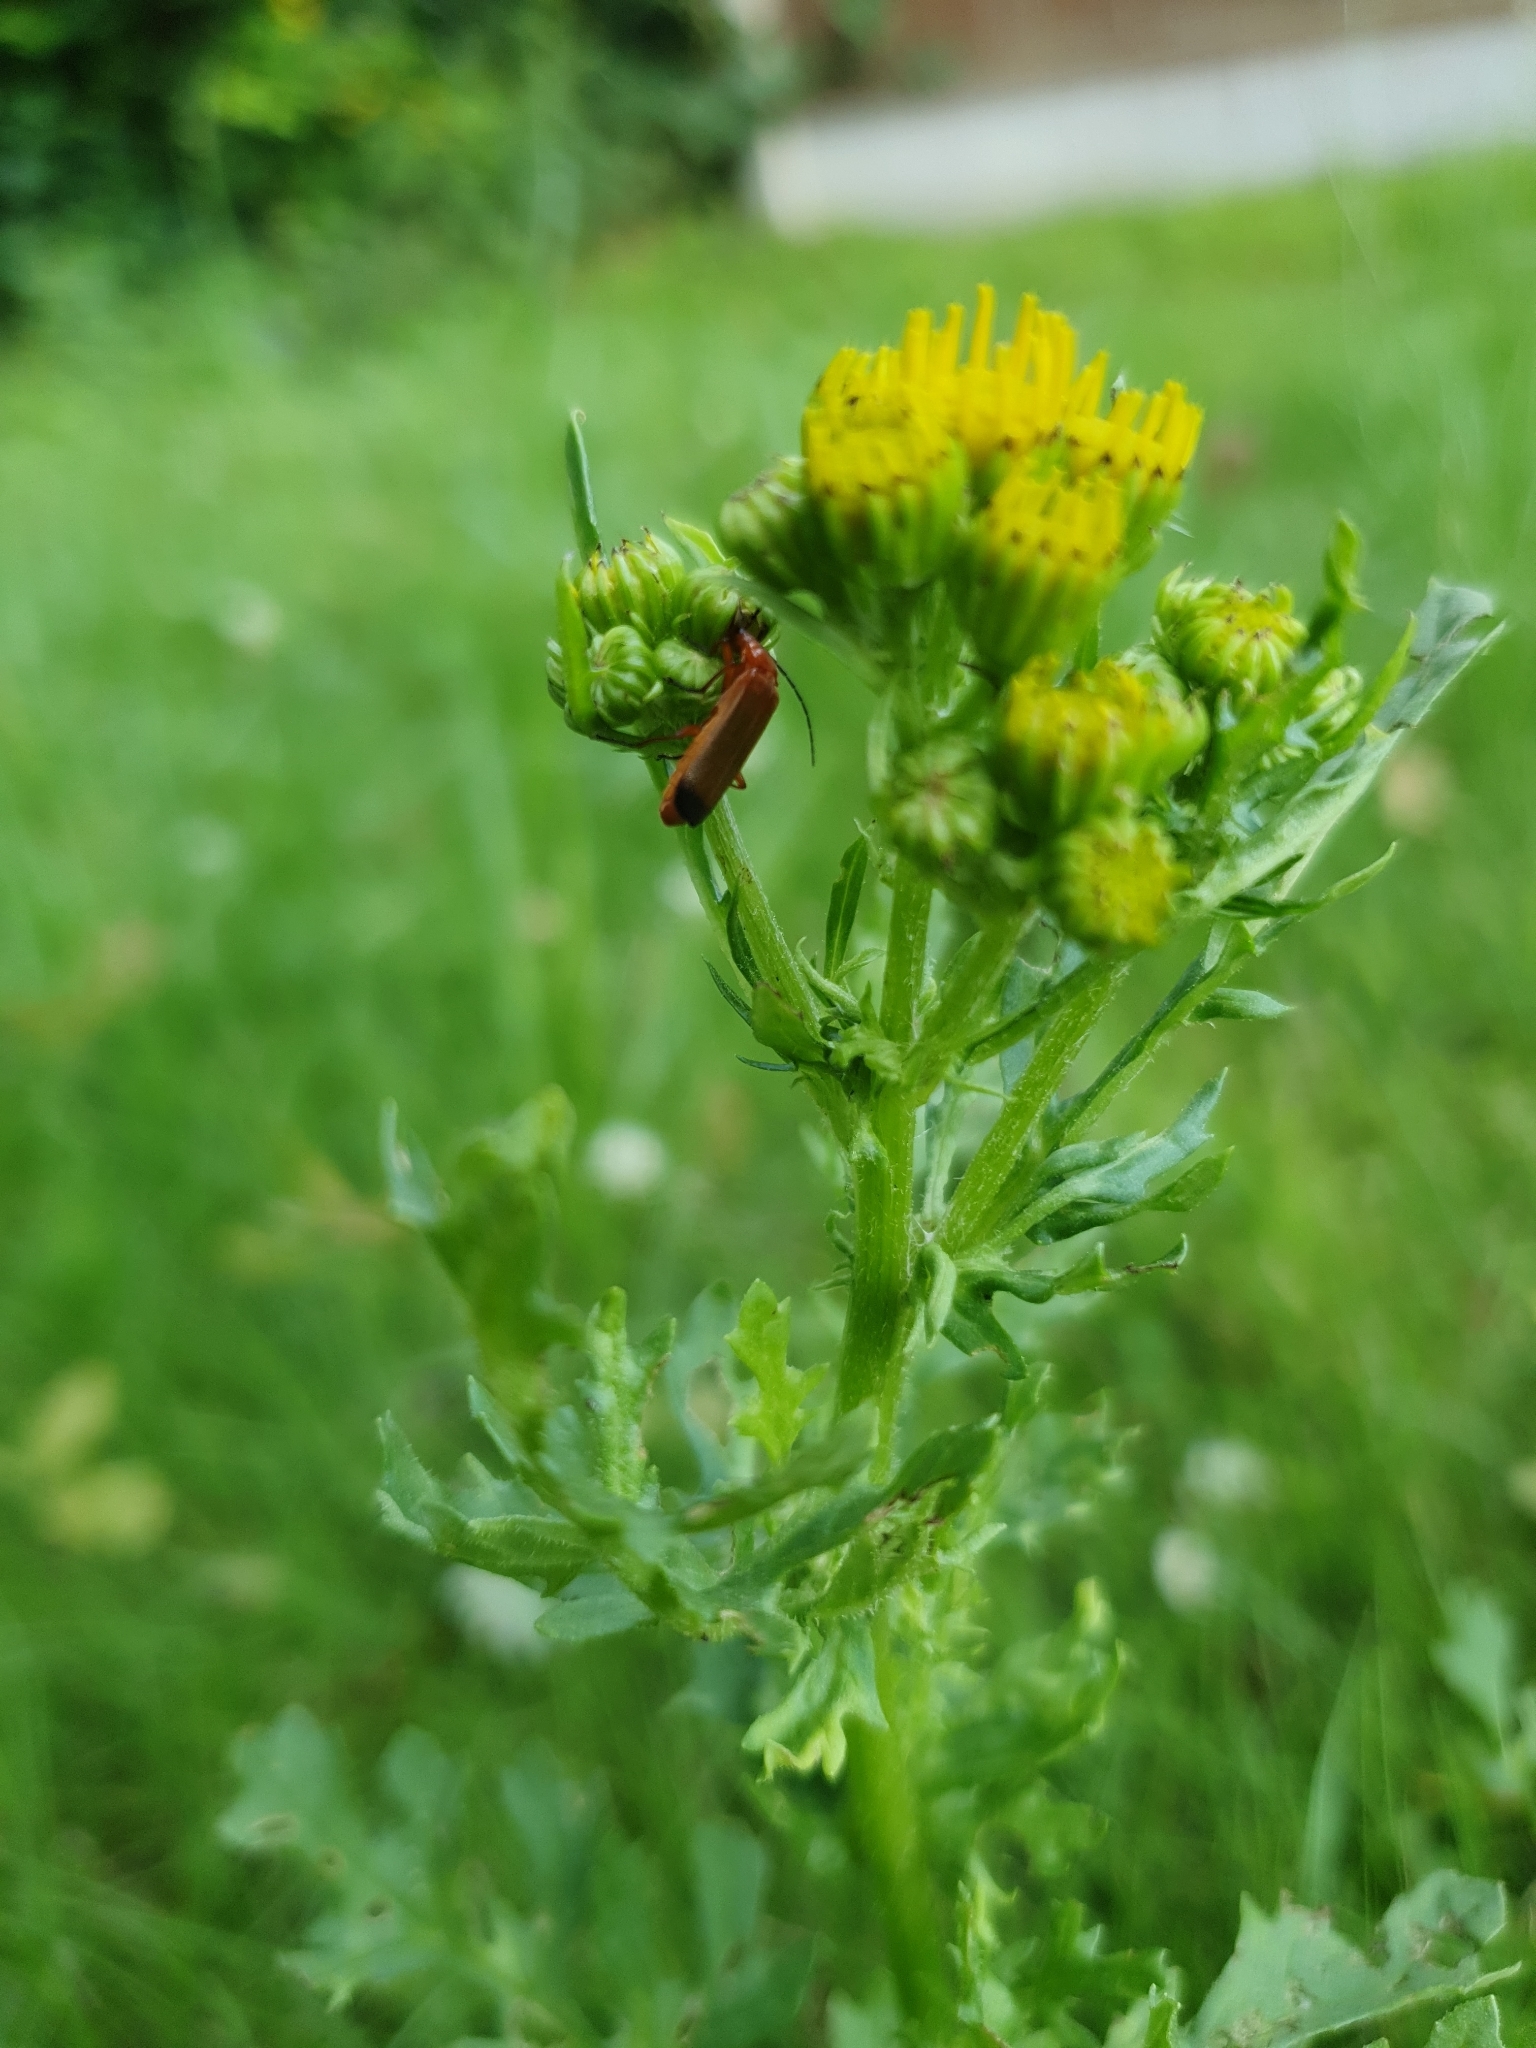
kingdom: Animalia
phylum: Arthropoda
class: Insecta
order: Coleoptera
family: Cantharidae
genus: Rhagonycha
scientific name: Rhagonycha fulva
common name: Common red soldier beetle
